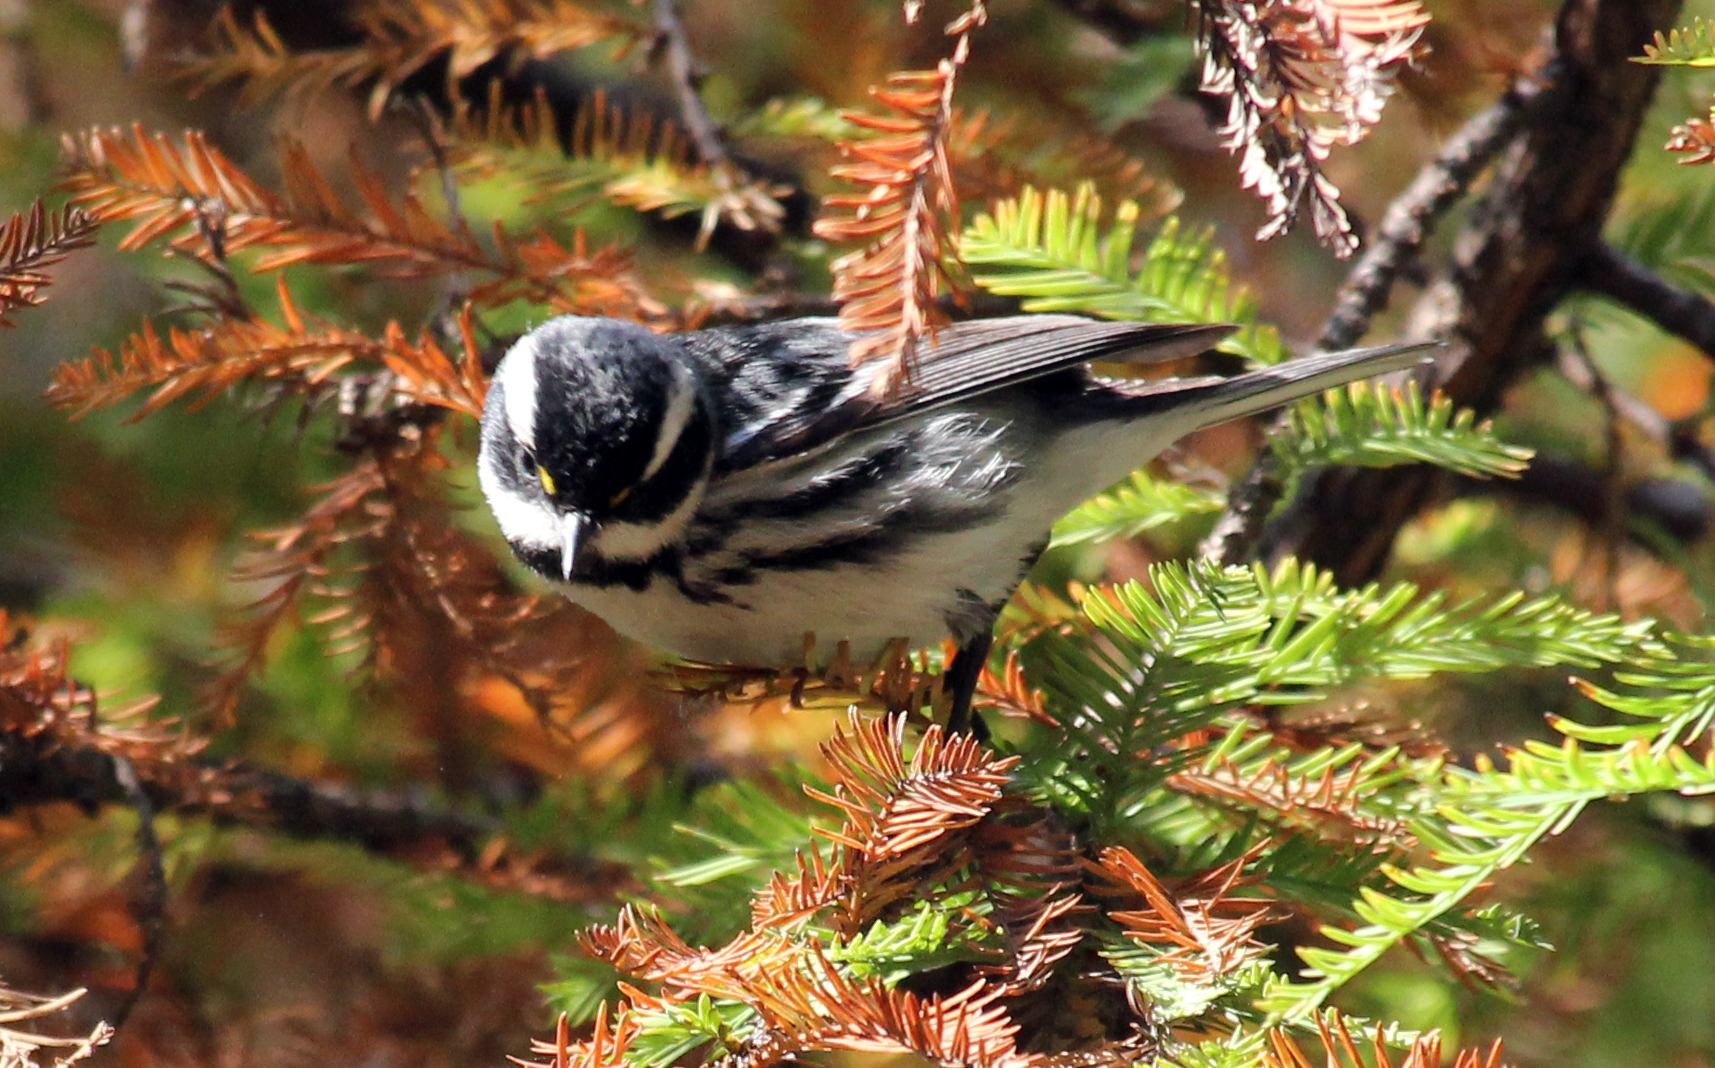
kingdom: Animalia
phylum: Chordata
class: Aves
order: Passeriformes
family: Parulidae
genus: Setophaga
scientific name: Setophaga nigrescens
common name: Black-throated gray warbler
